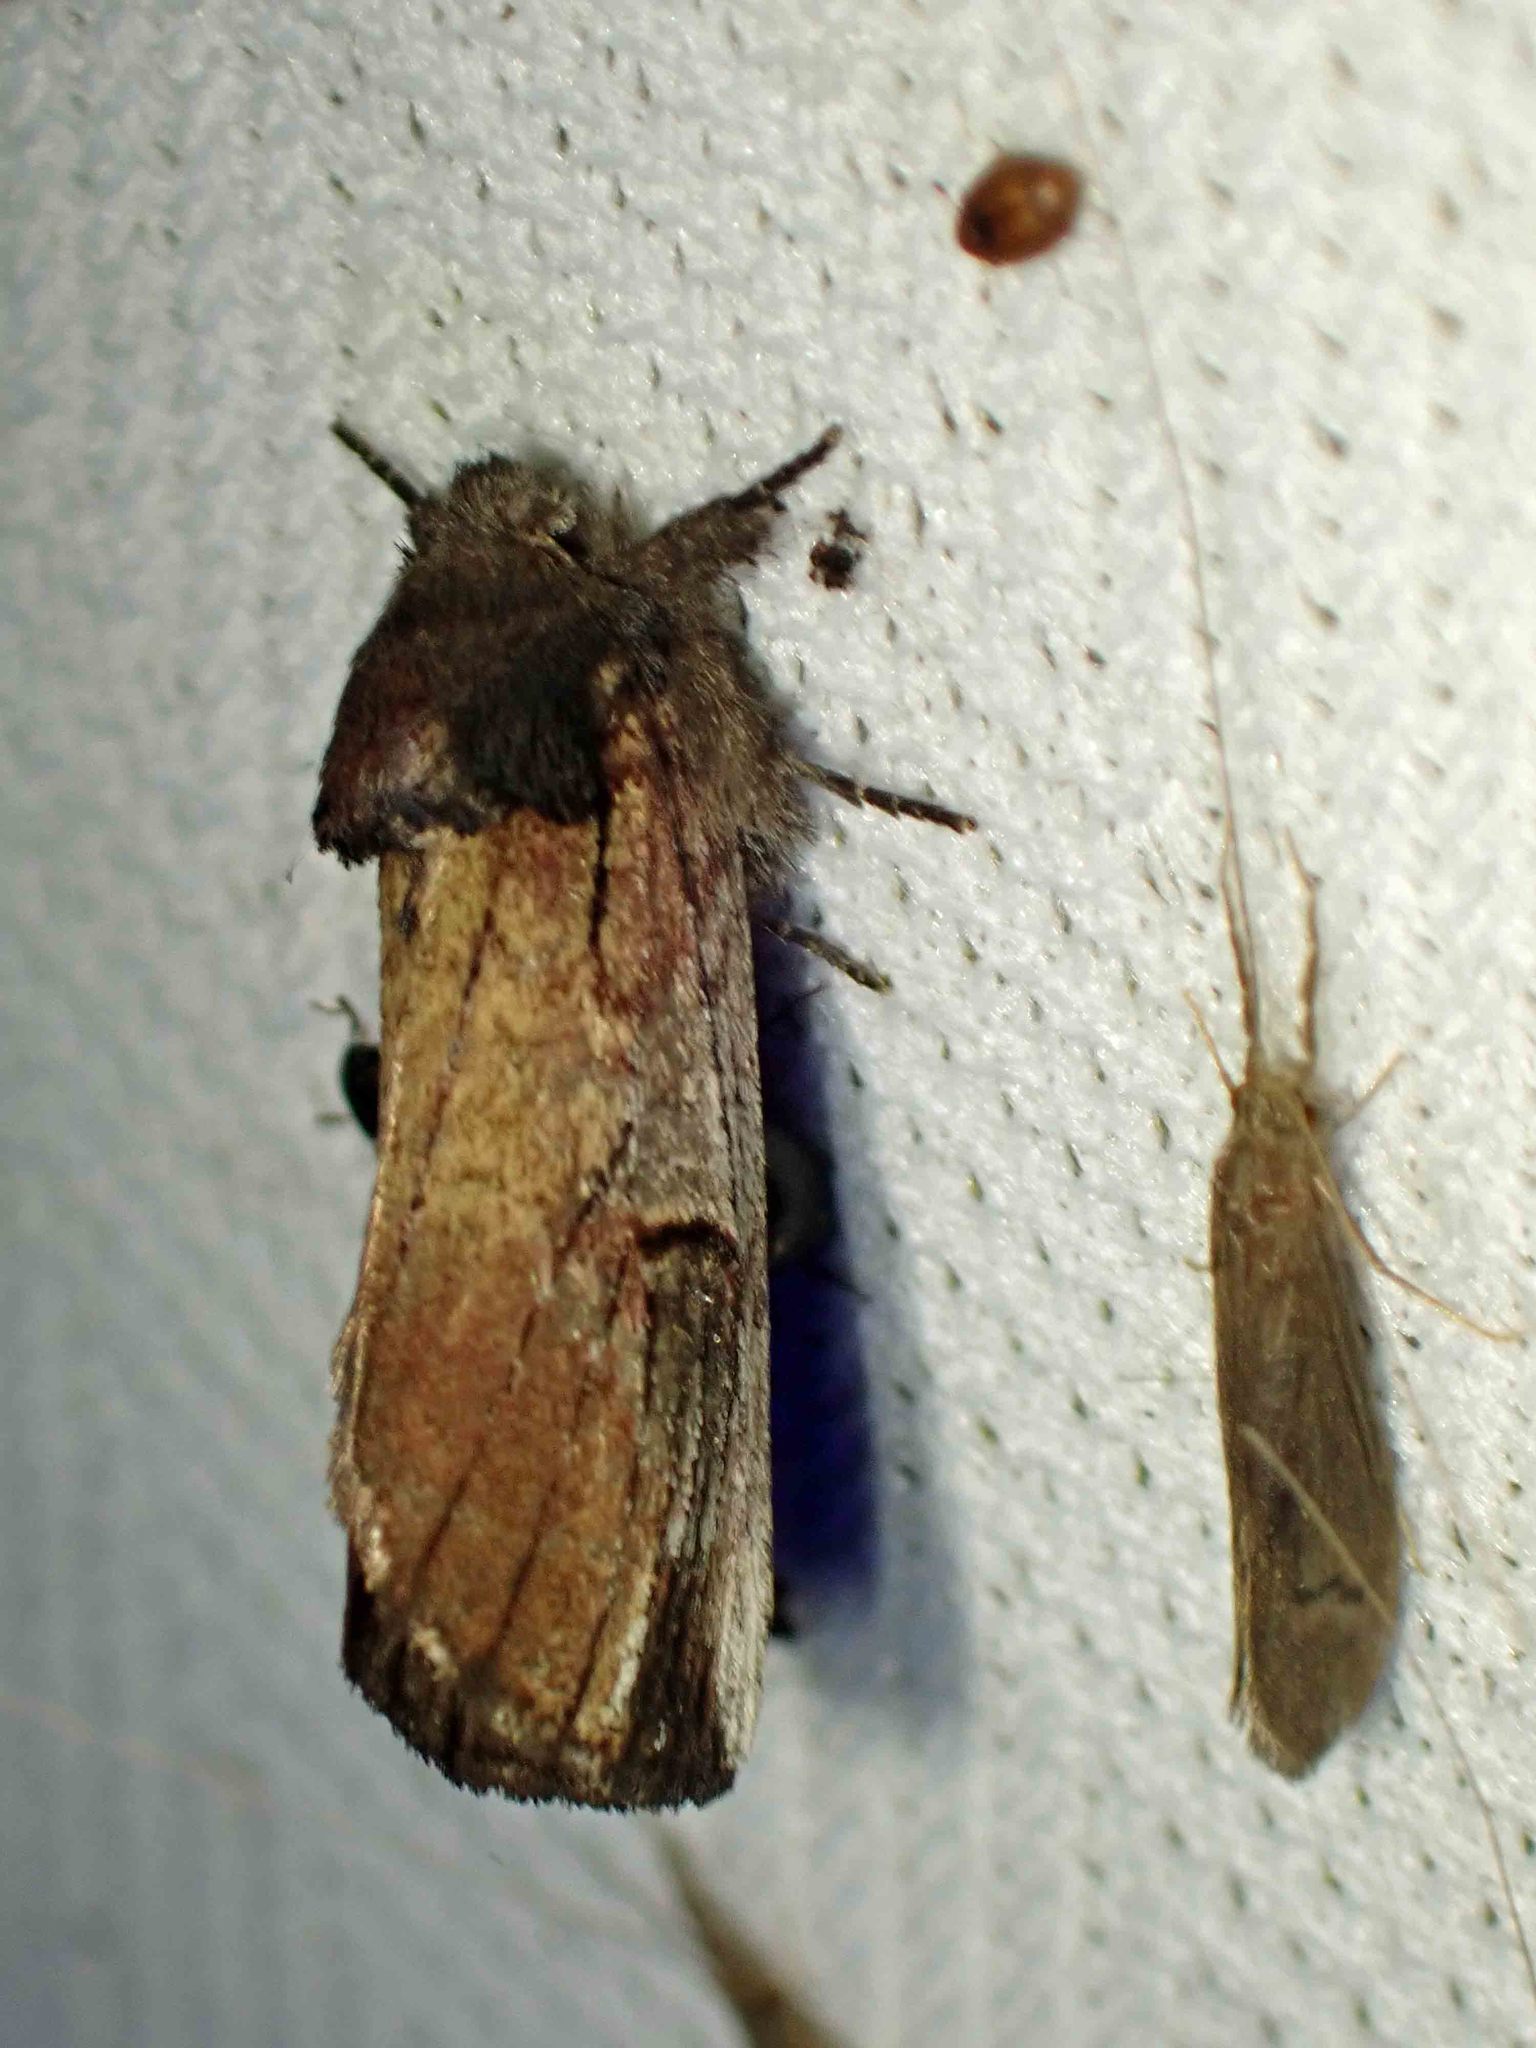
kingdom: Animalia
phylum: Arthropoda
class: Insecta
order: Lepidoptera
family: Notodontidae
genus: Schizura
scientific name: Schizura badia
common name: Chestnut schizura
